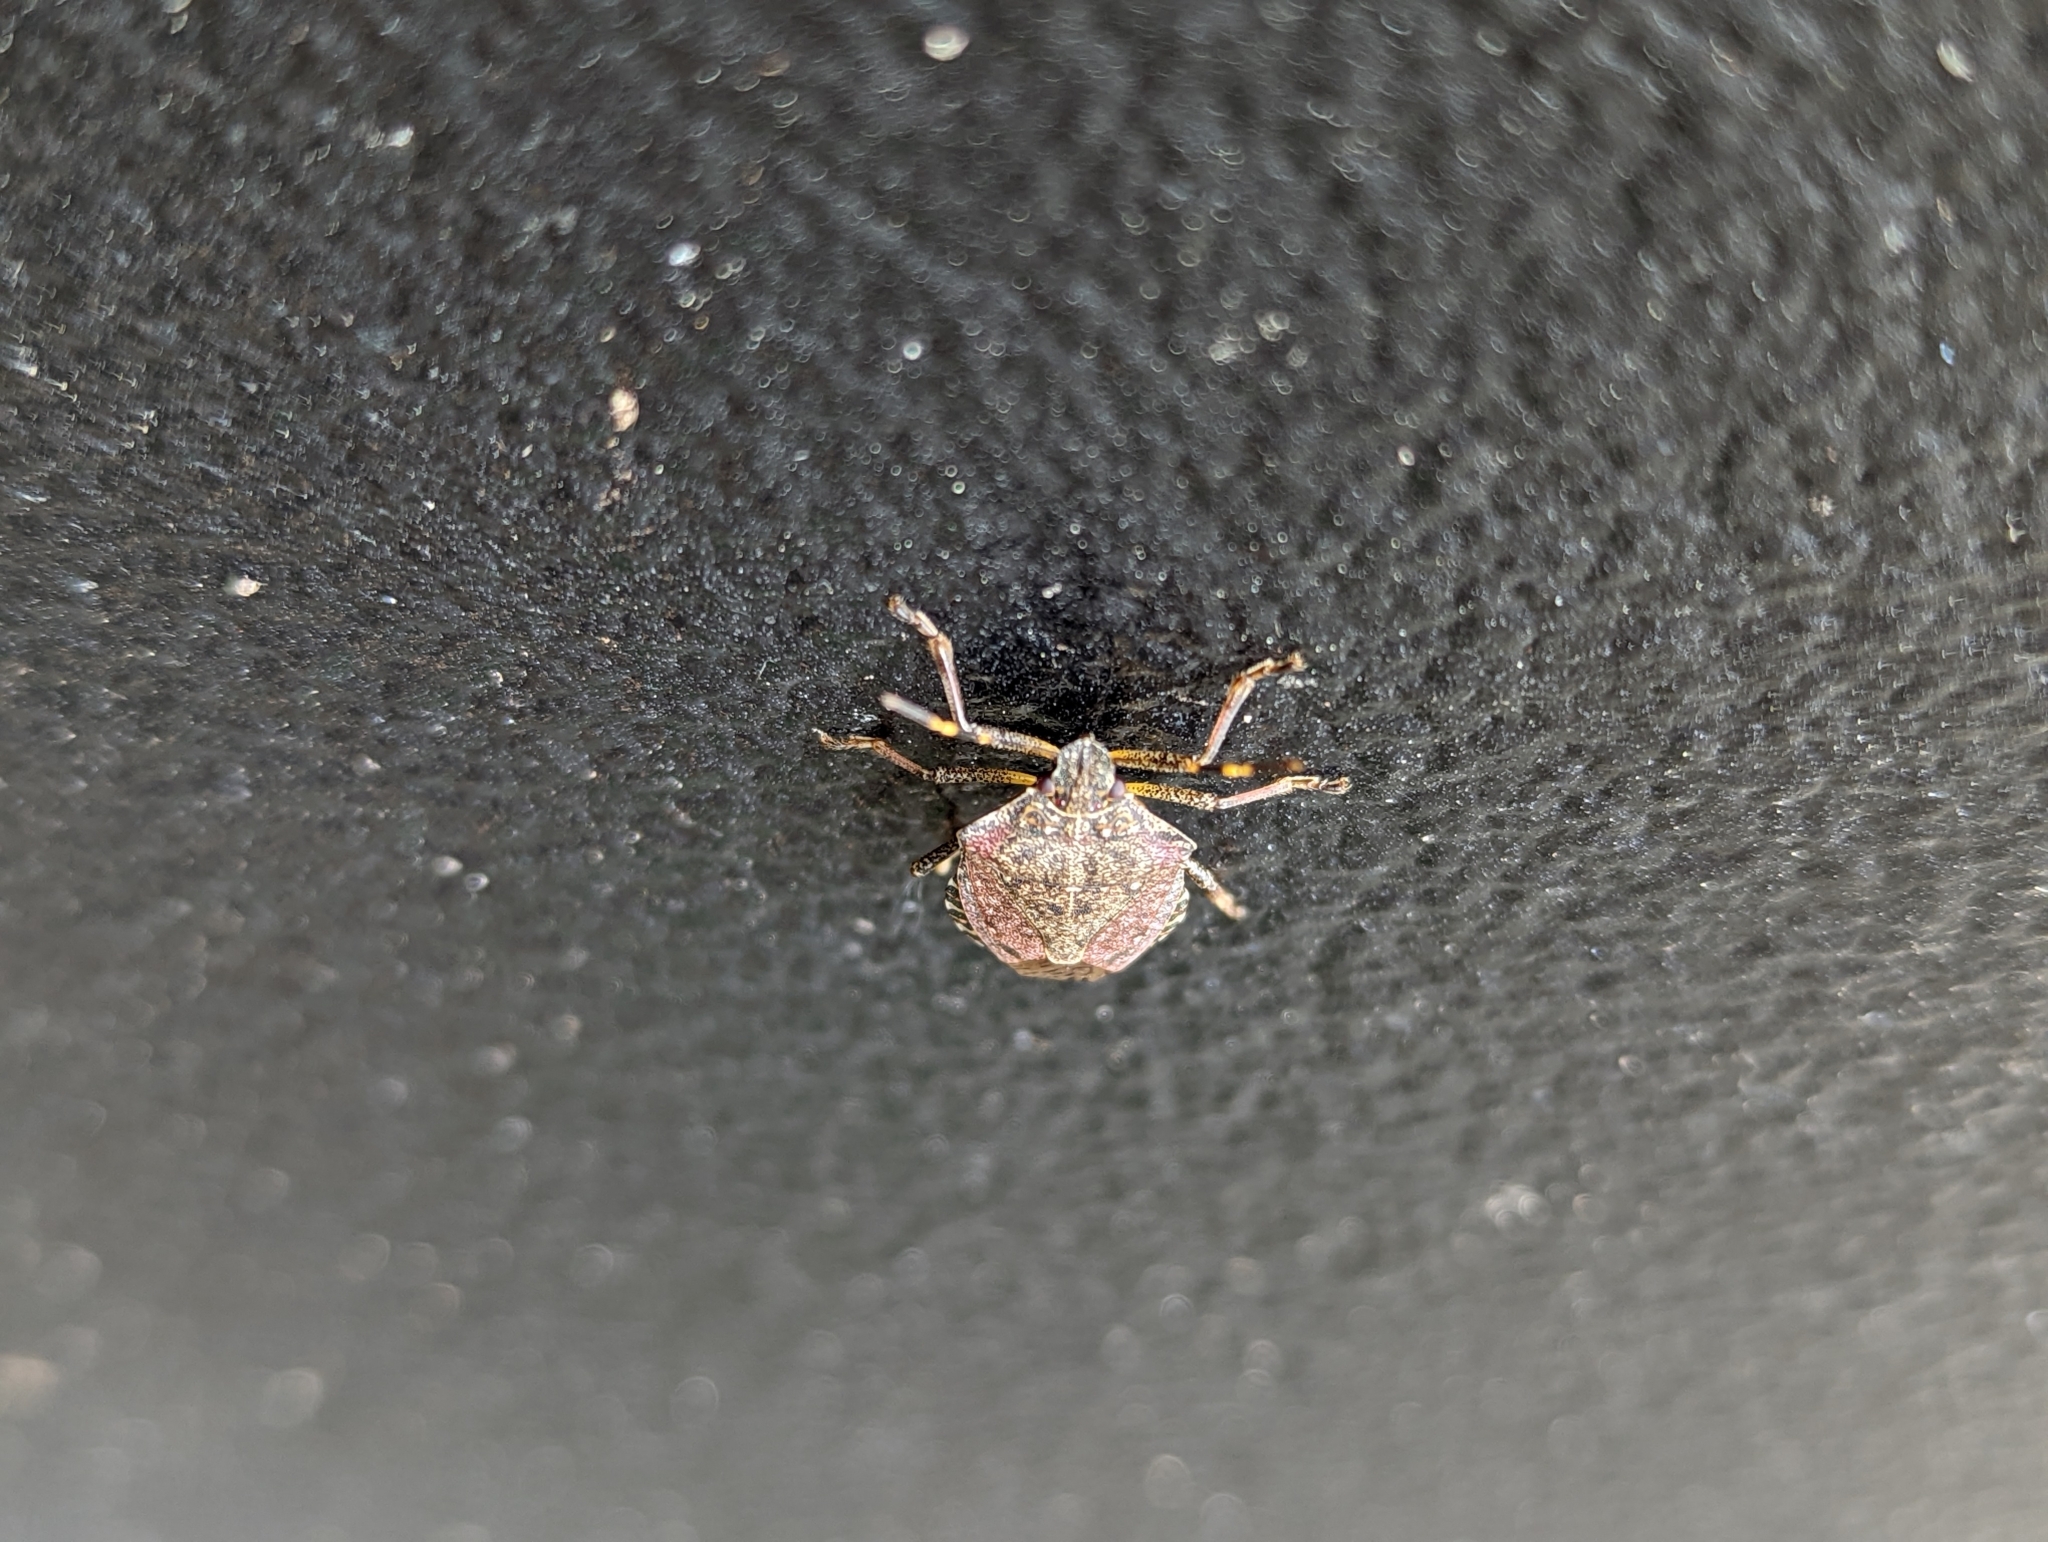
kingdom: Animalia
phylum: Arthropoda
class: Insecta
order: Hemiptera
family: Pentatomidae
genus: Halyomorpha
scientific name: Halyomorpha halys
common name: Brown marmorated stink bug
